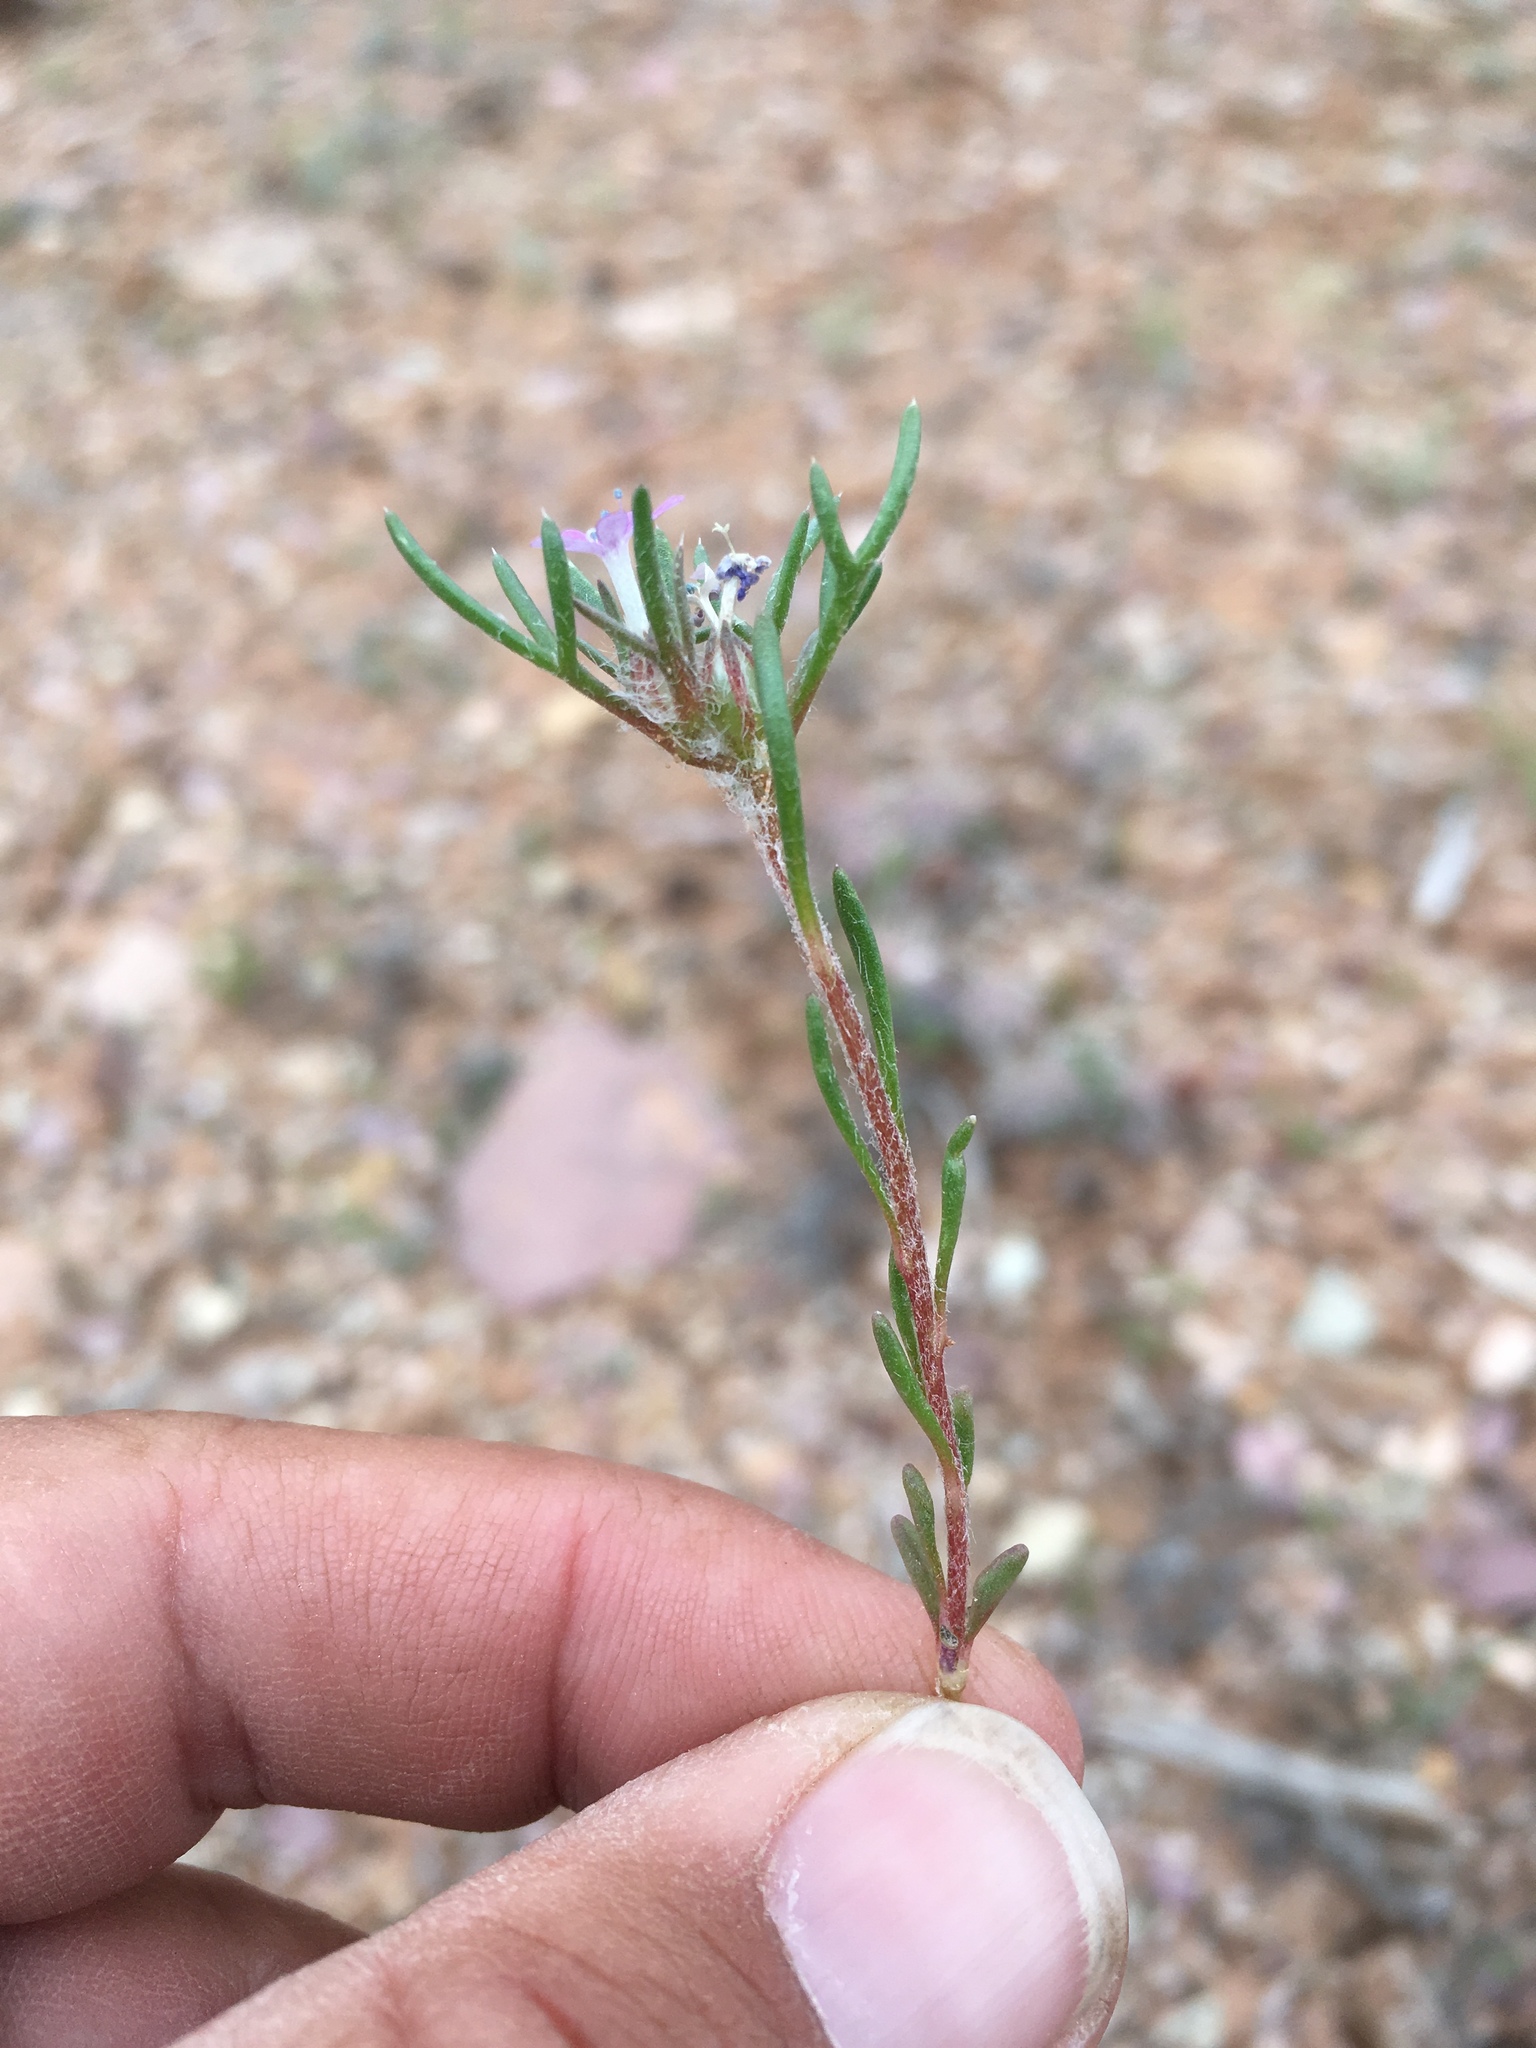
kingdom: Plantae
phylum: Tracheophyta
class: Magnoliopsida
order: Ericales
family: Polemoniaceae
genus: Ipomopsis
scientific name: Ipomopsis pumila
